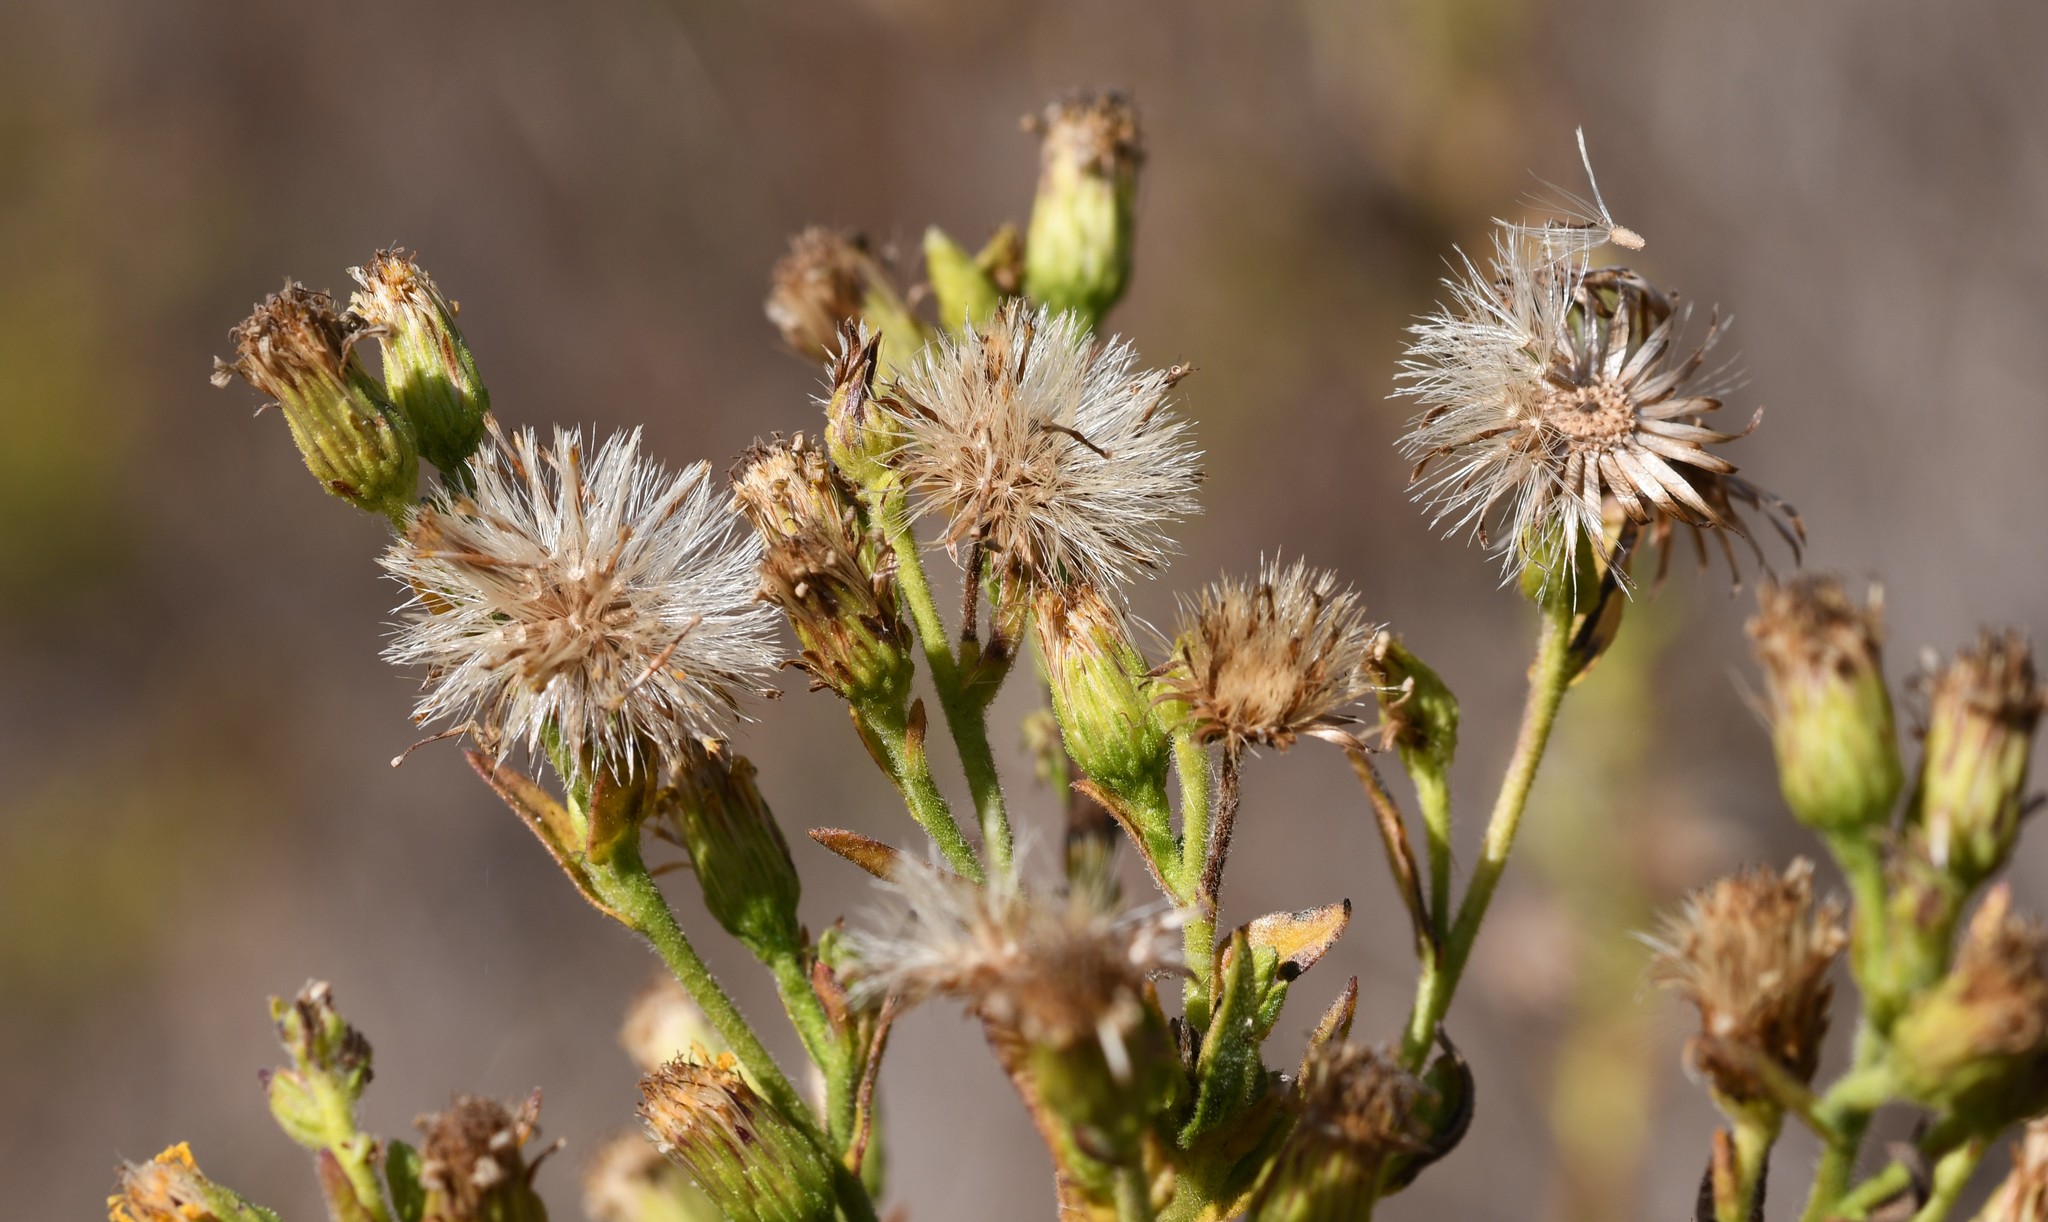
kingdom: Plantae
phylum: Tracheophyta
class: Magnoliopsida
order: Asterales
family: Asteraceae
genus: Dittrichia
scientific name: Dittrichia viscosa
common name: Woody fleabane
